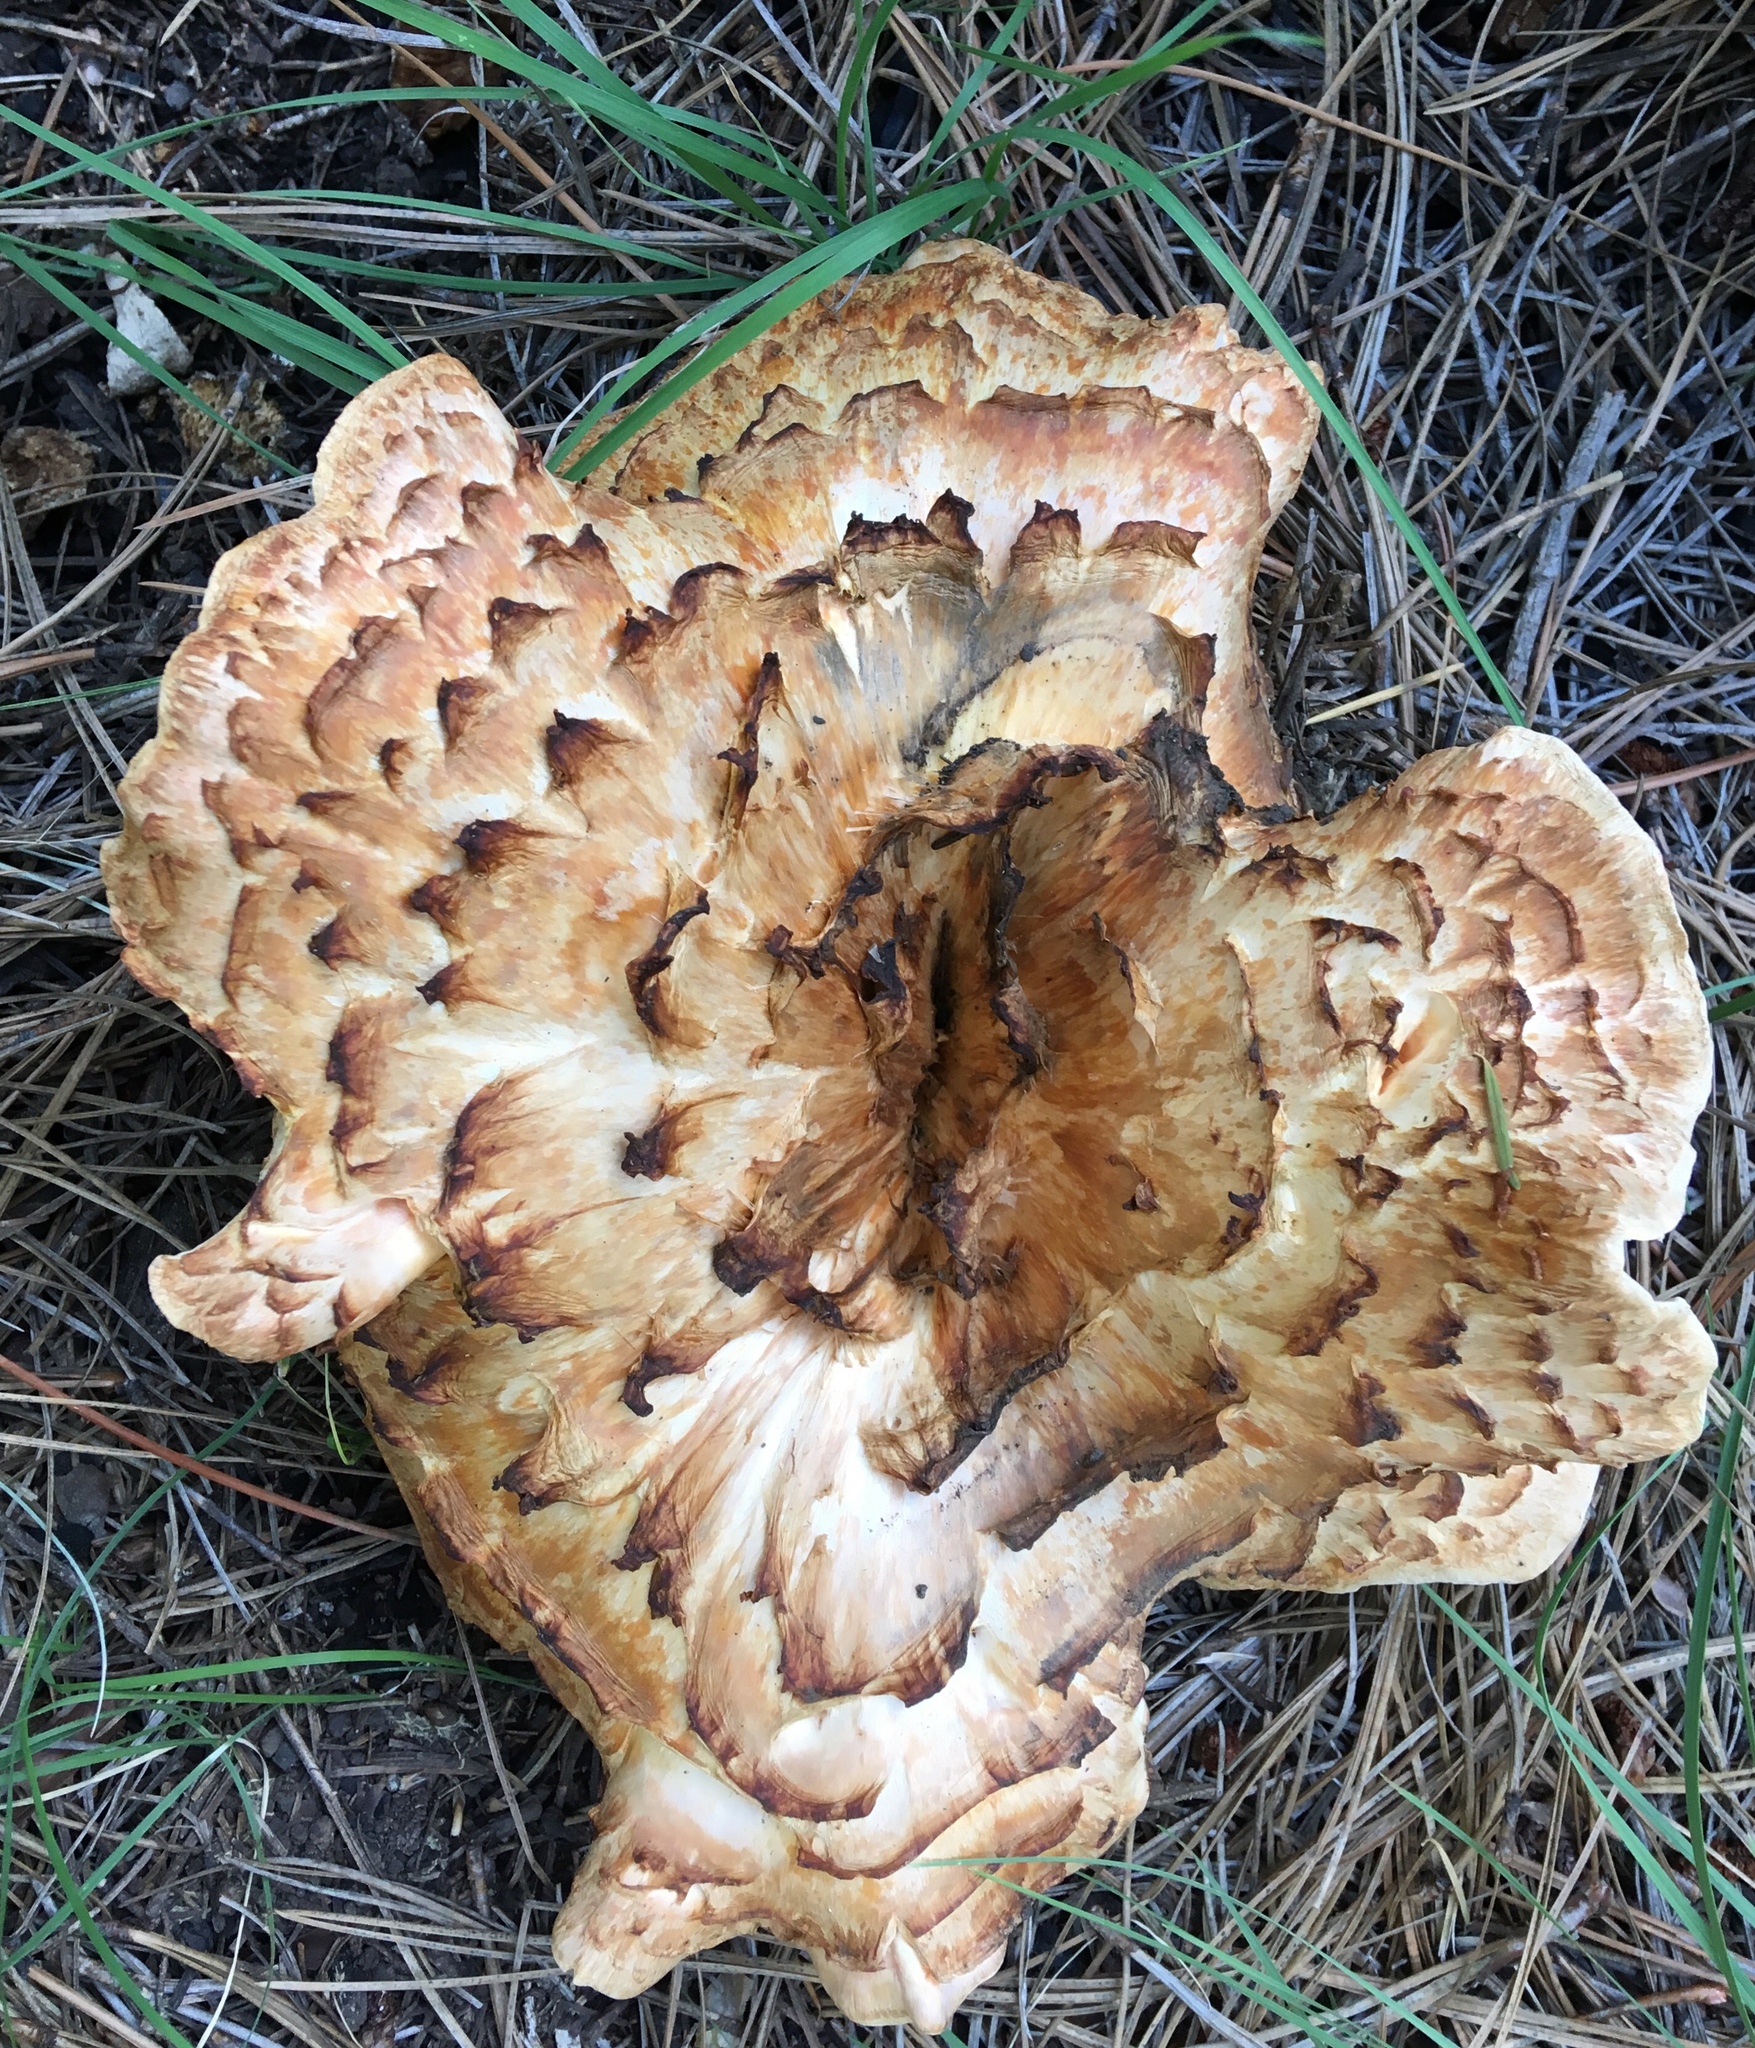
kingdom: Fungi
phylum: Basidiomycota
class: Agaricomycetes
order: Gomphales
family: Gomphaceae
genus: Turbinellus
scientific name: Turbinellus floccosus
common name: Scaly chanterelle
